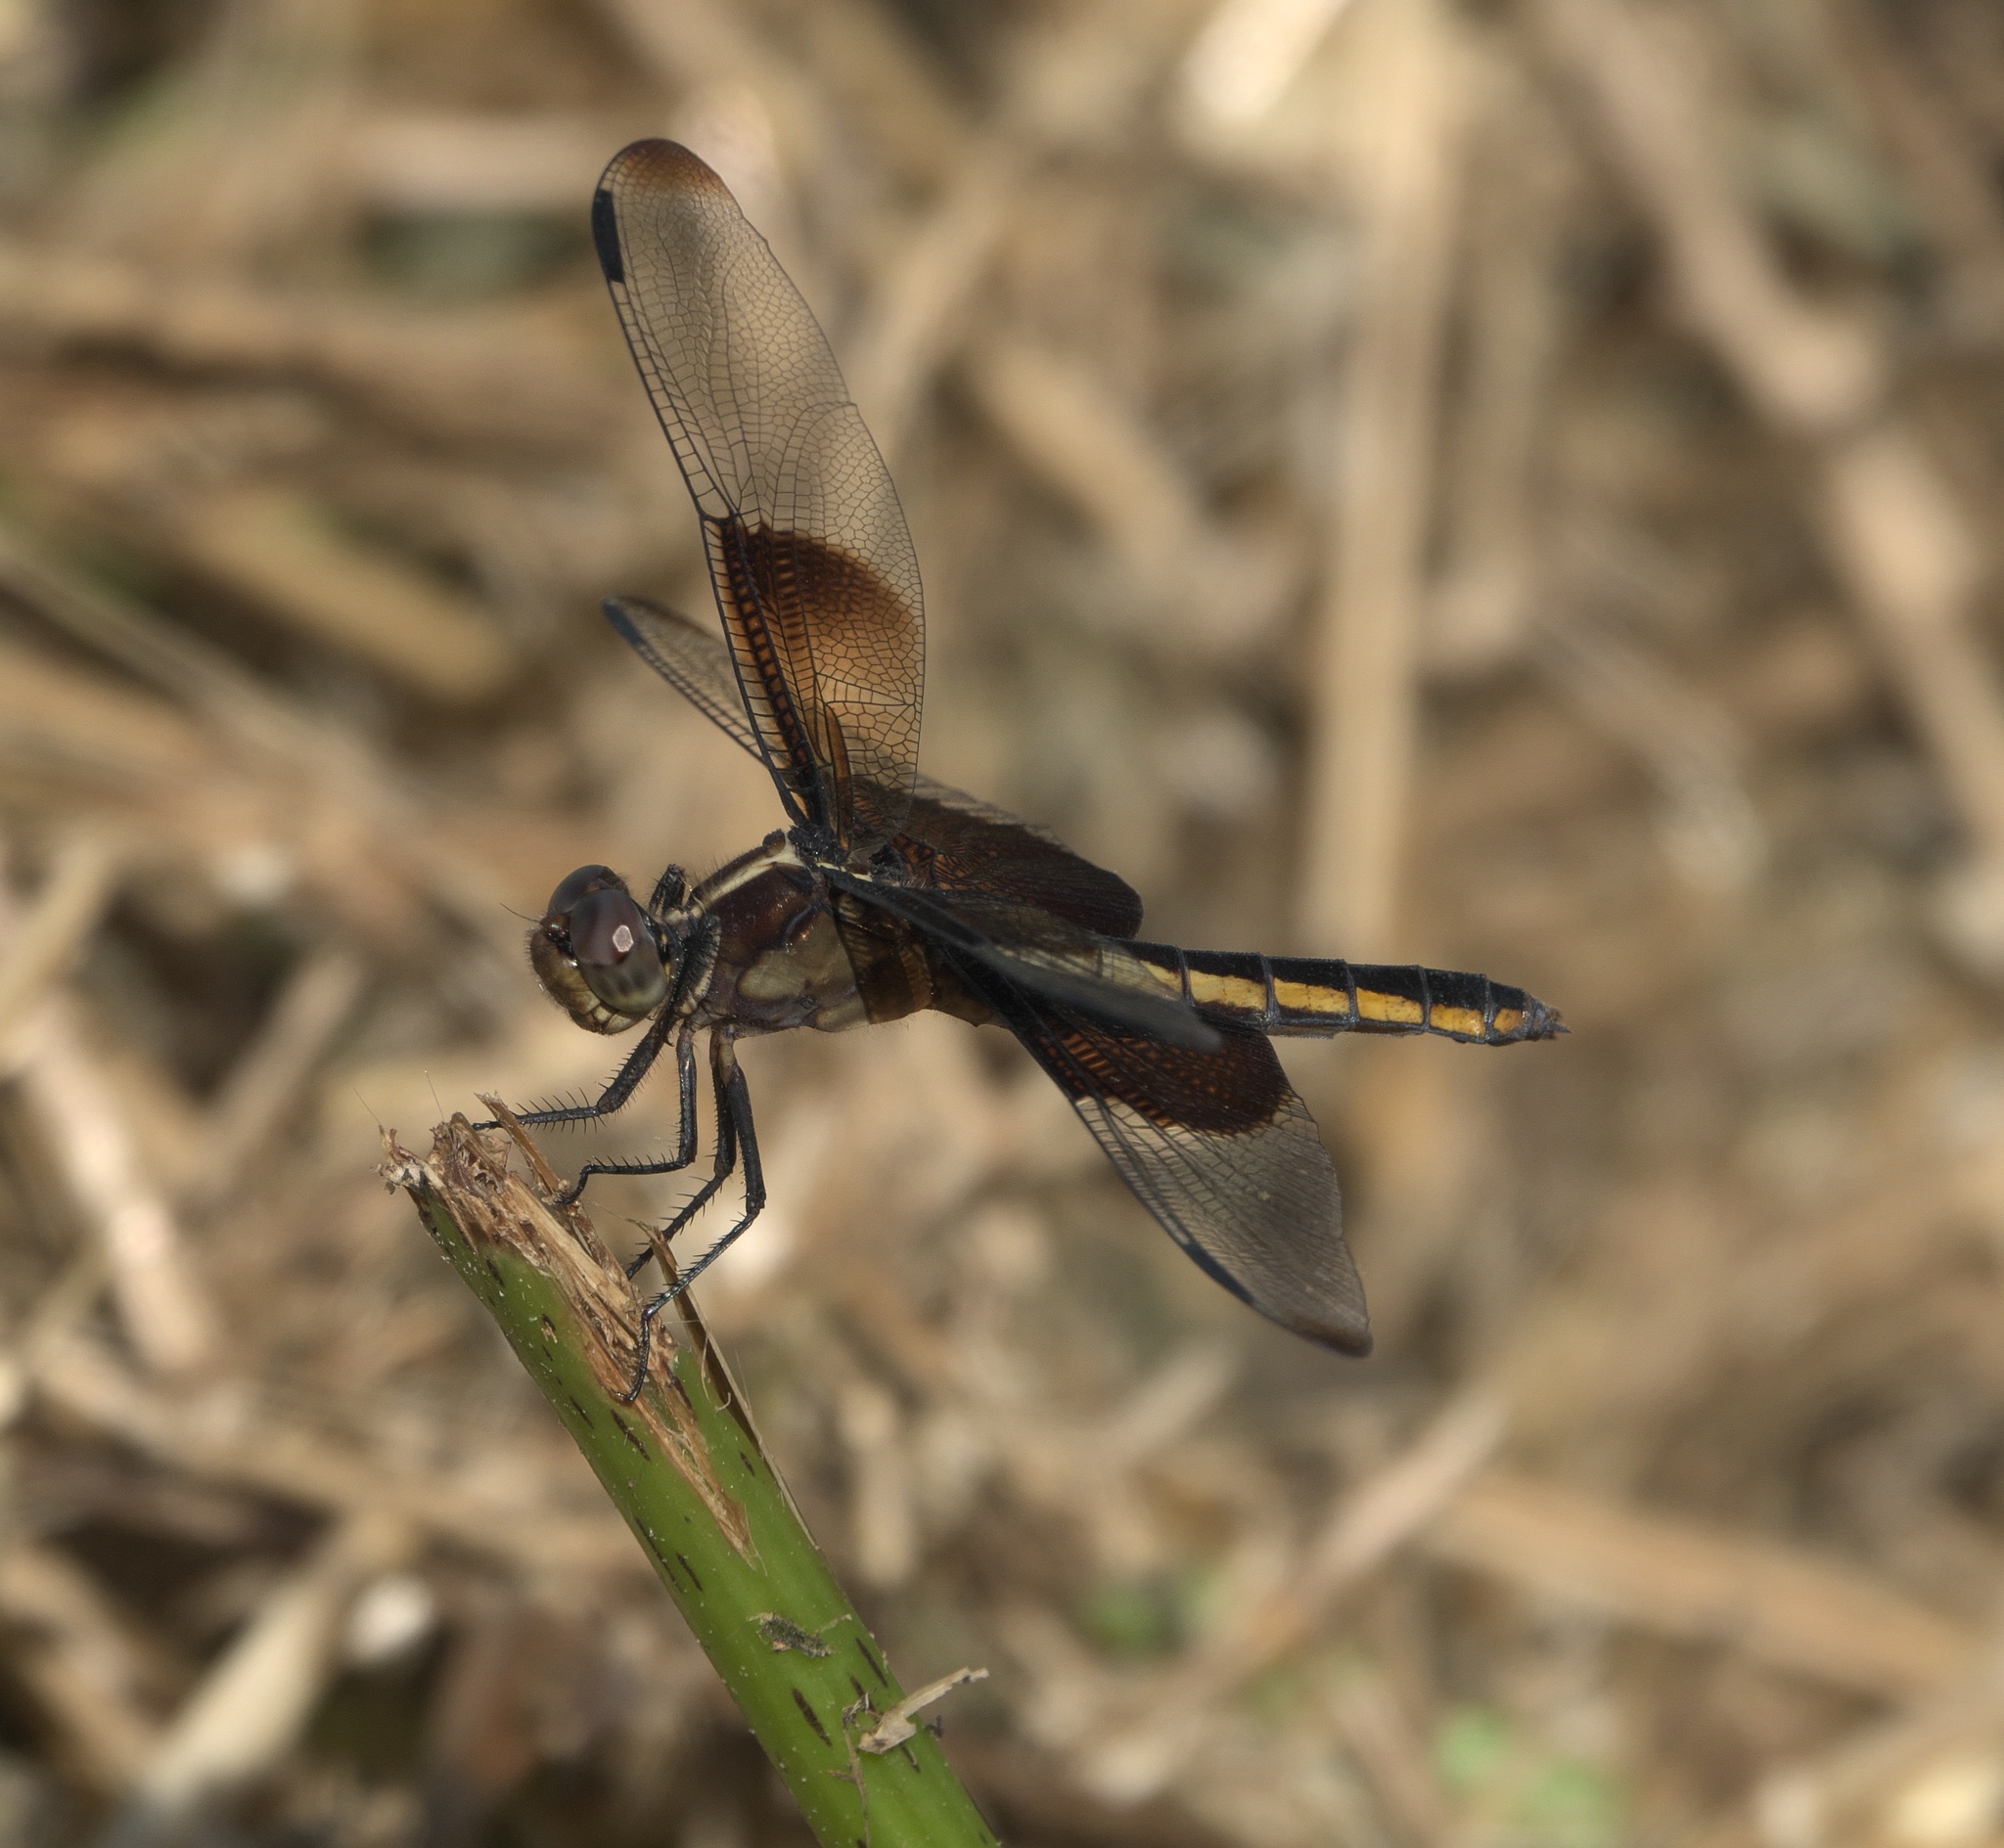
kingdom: Animalia
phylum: Arthropoda
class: Insecta
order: Odonata
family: Libellulidae
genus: Libellula
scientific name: Libellula luctuosa
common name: Widow skimmer
